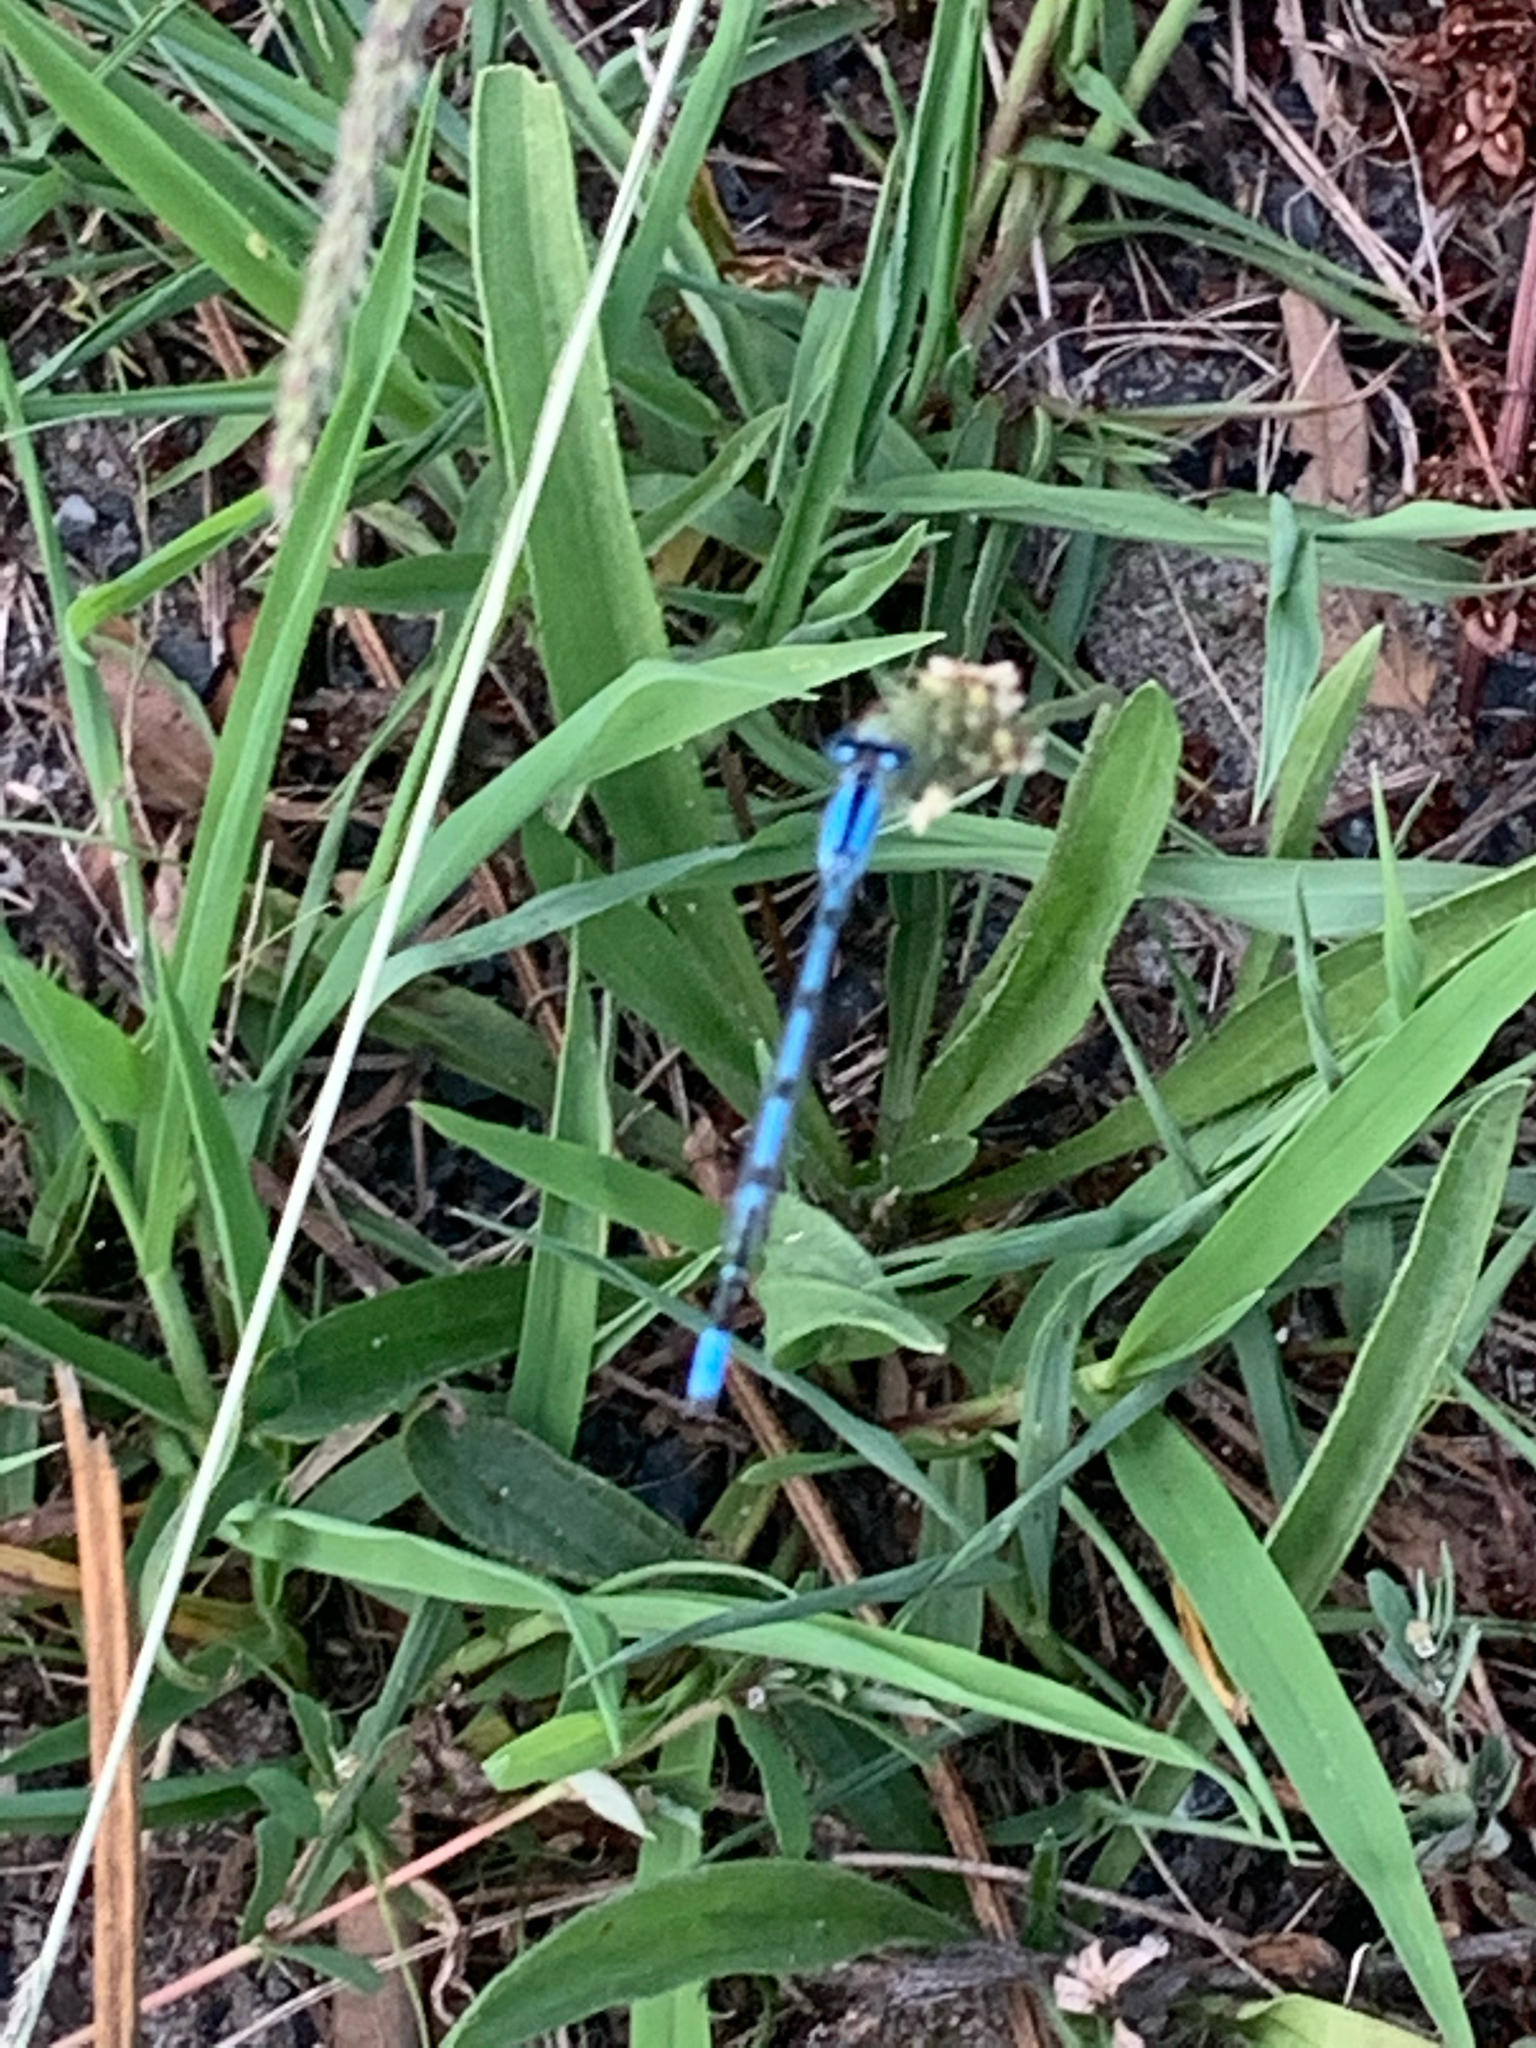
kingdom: Animalia
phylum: Arthropoda
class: Insecta
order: Odonata
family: Coenagrionidae
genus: Enallagma
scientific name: Enallagma
